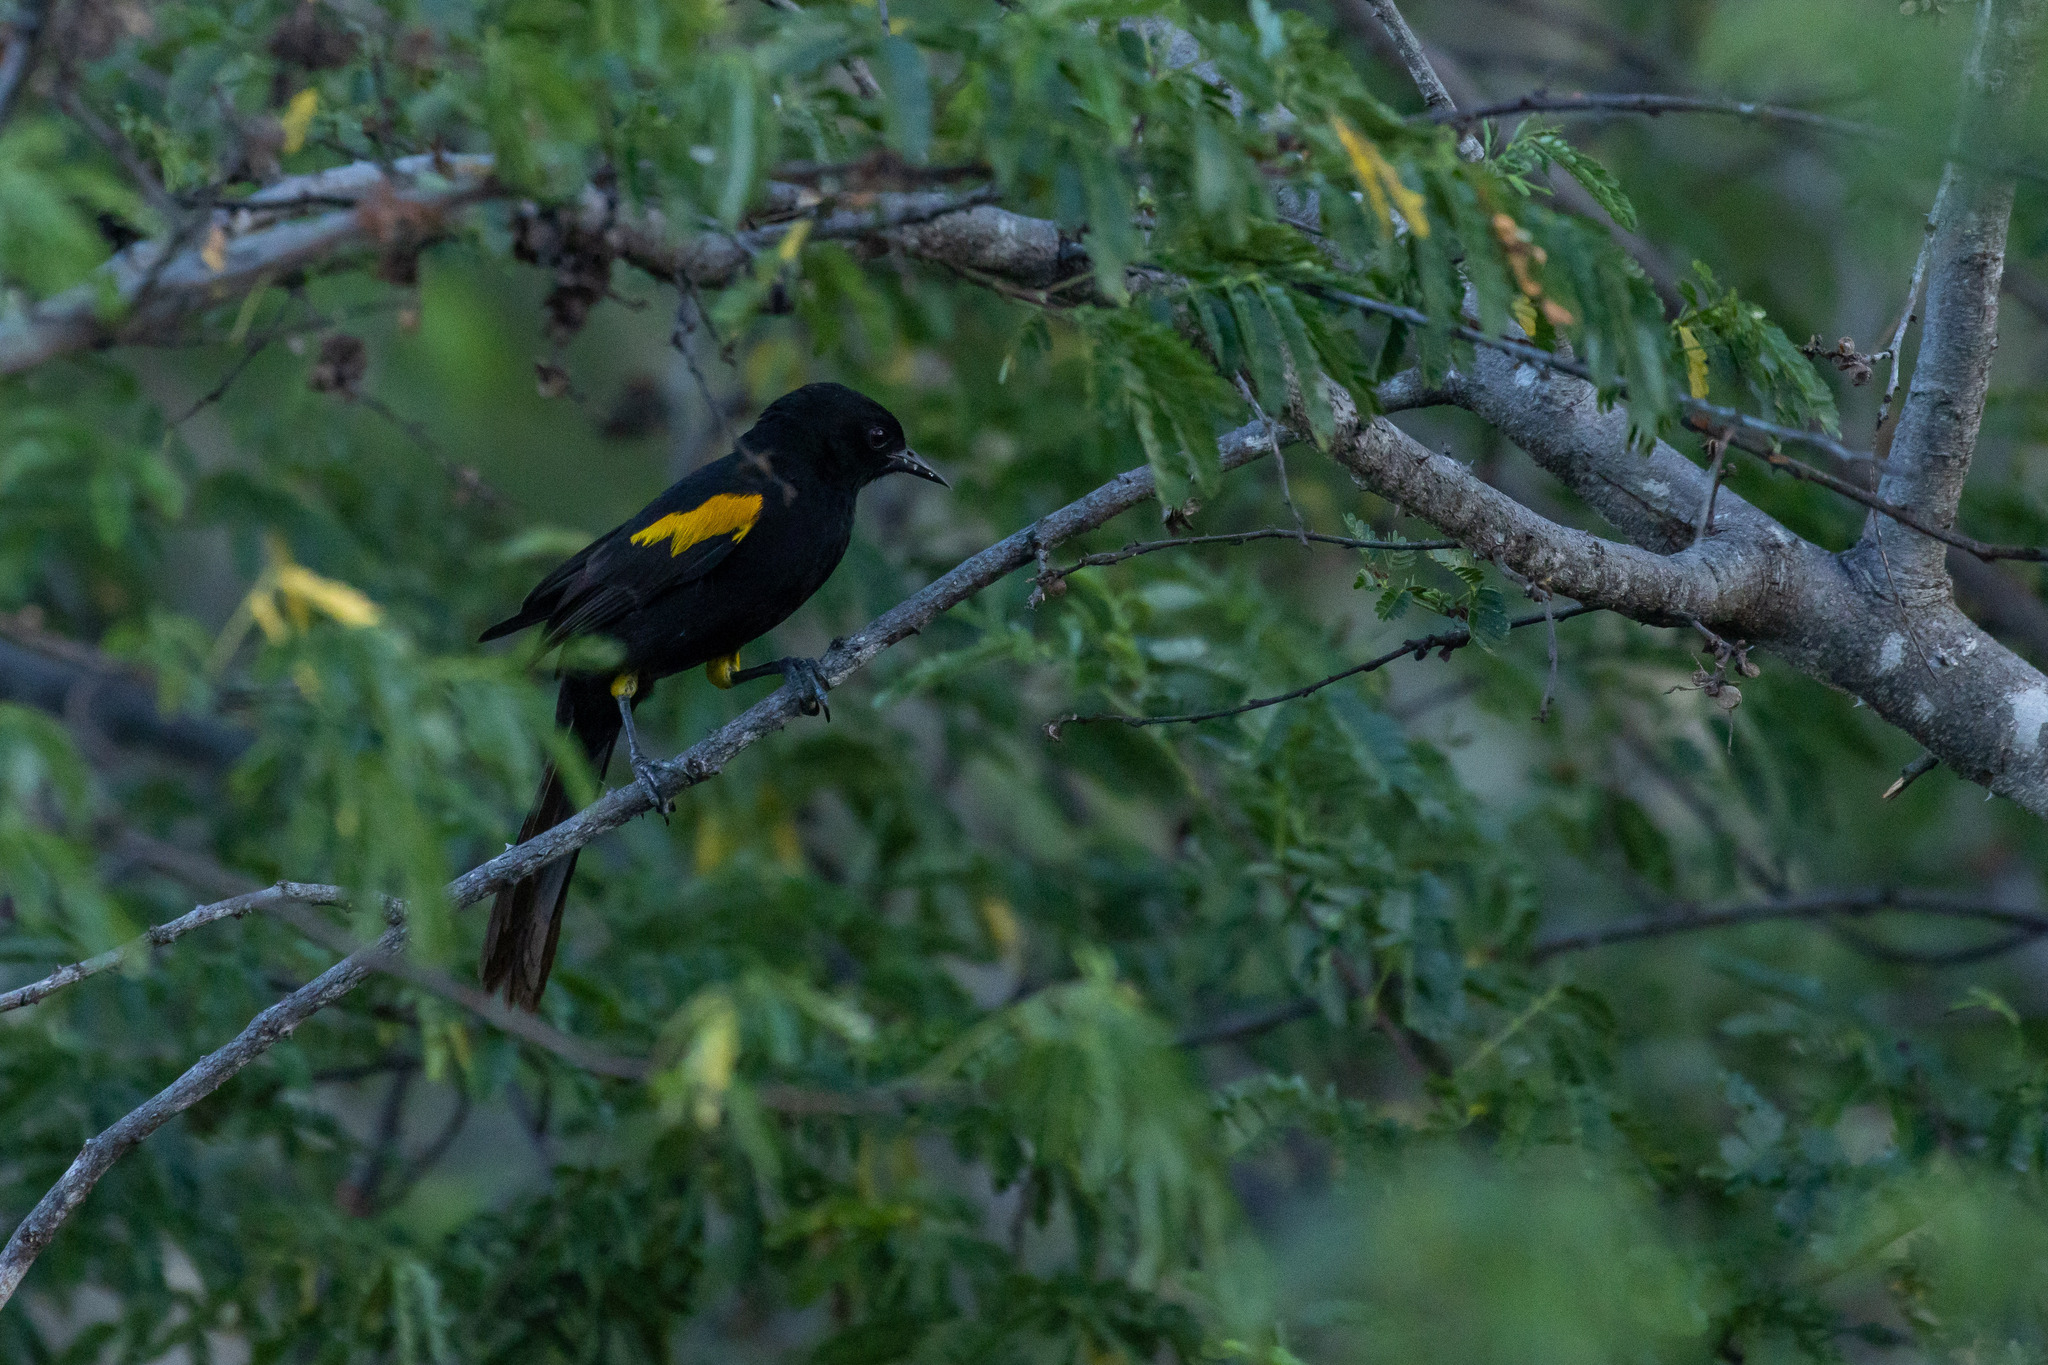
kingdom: Animalia
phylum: Chordata
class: Aves
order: Passeriformes
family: Icteridae
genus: Icterus
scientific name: Icterus cayanensis
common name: Epaulet oriole
